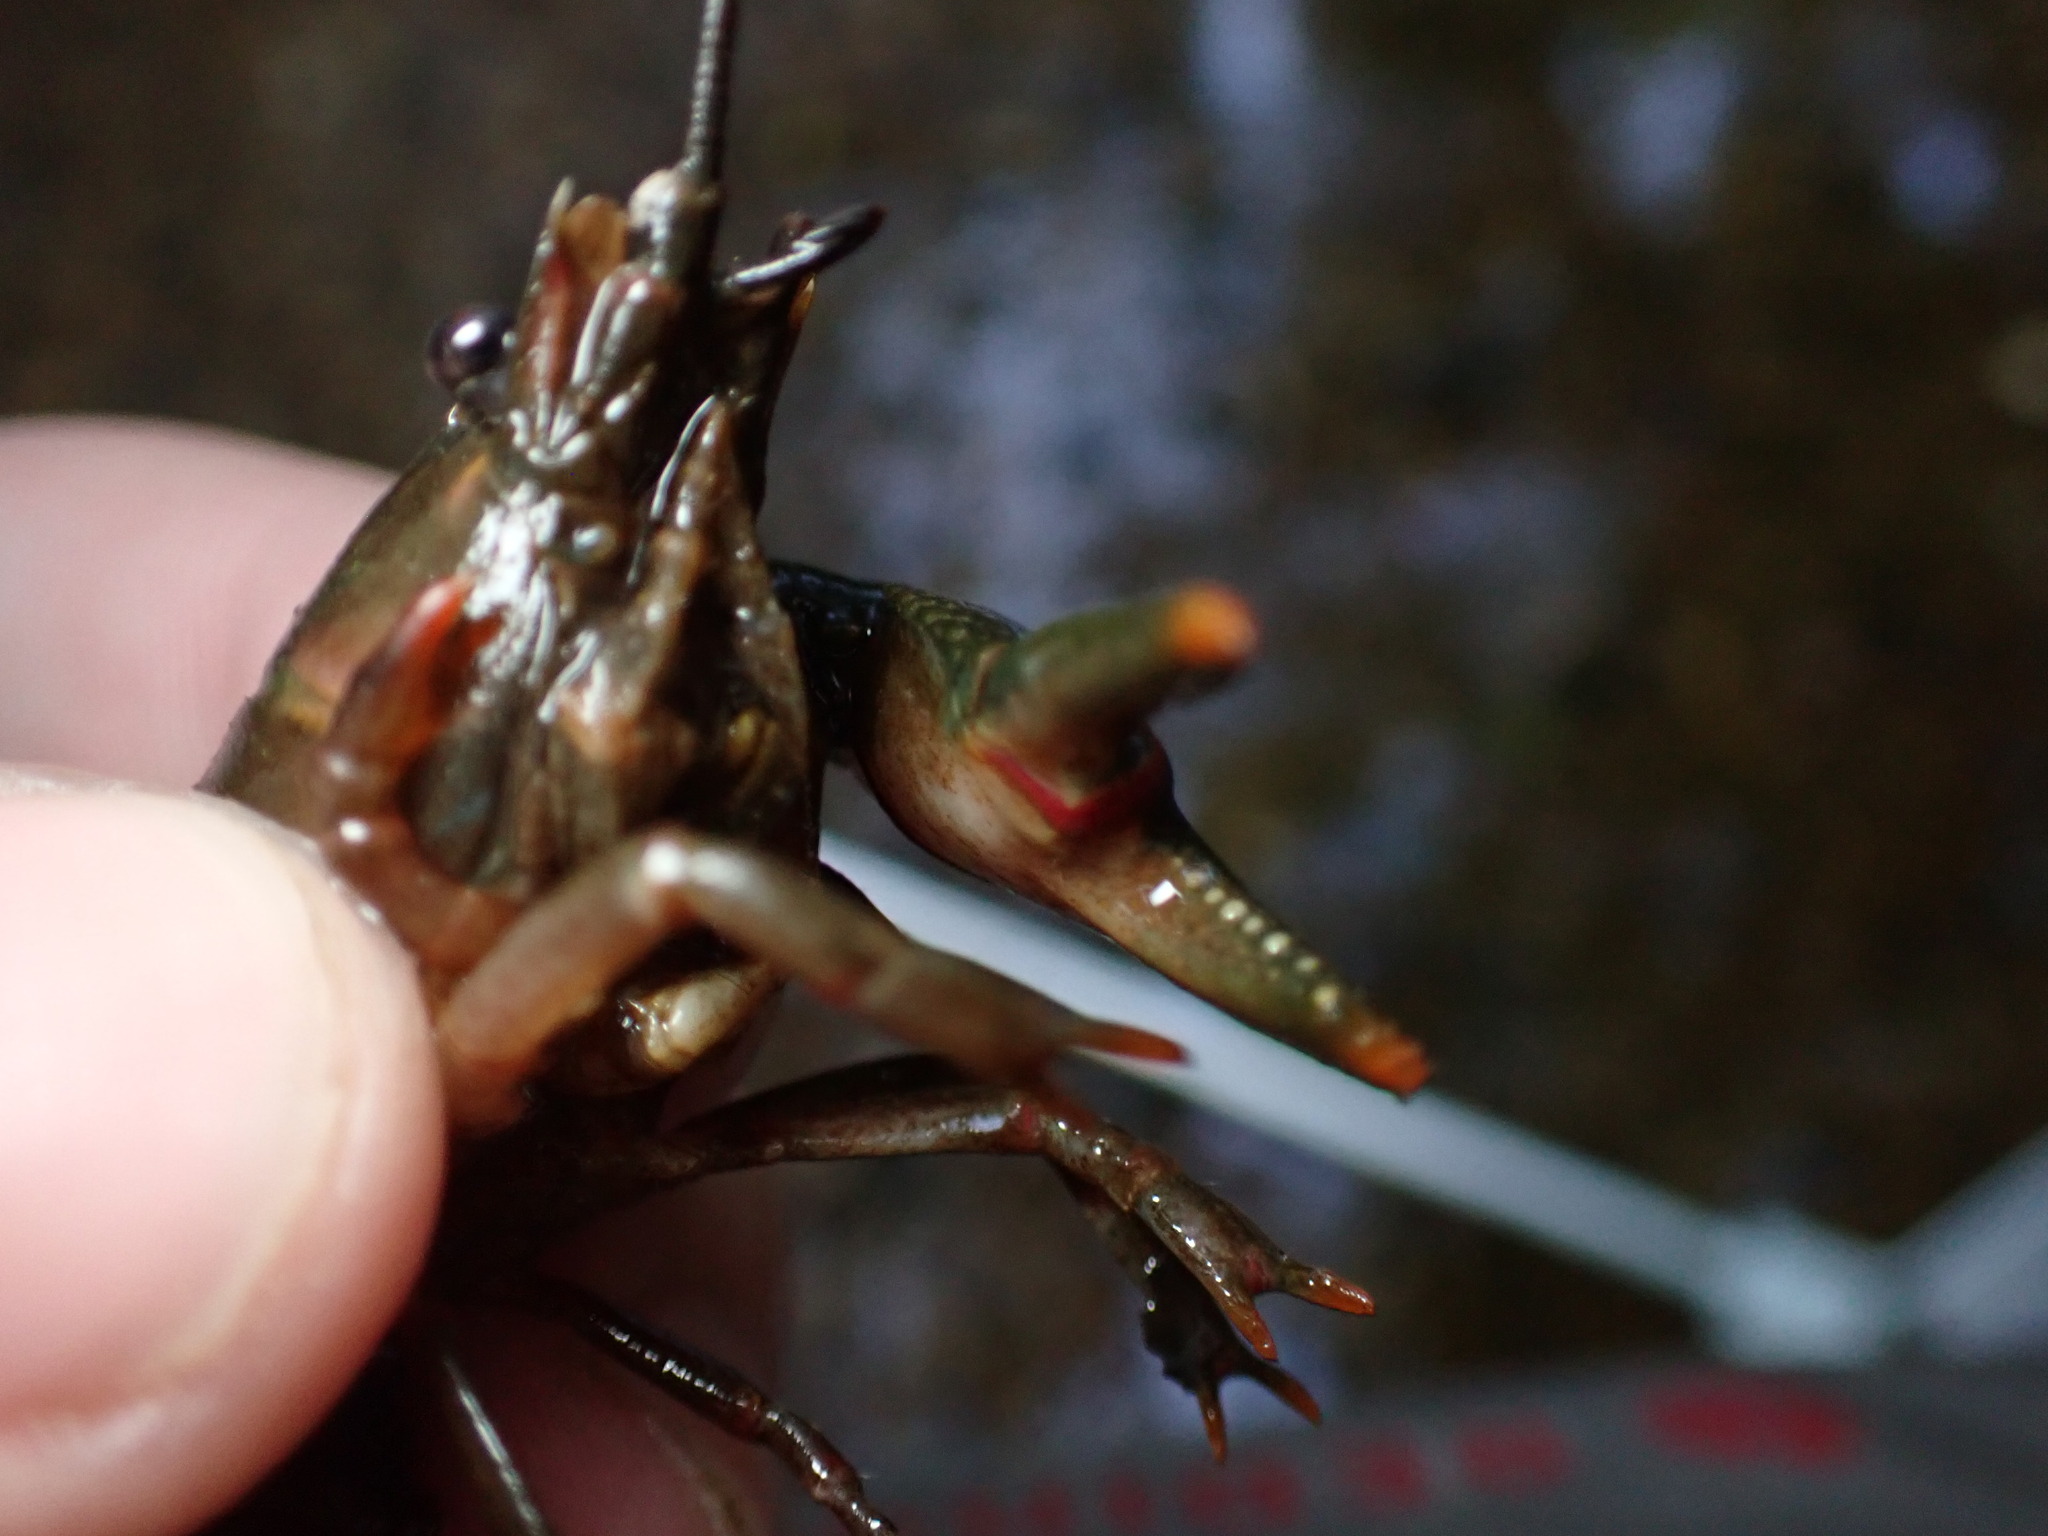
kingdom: Animalia
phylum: Arthropoda
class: Malacostraca
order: Decapoda
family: Cambaridae
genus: Faxonius
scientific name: Faxonius mirus
